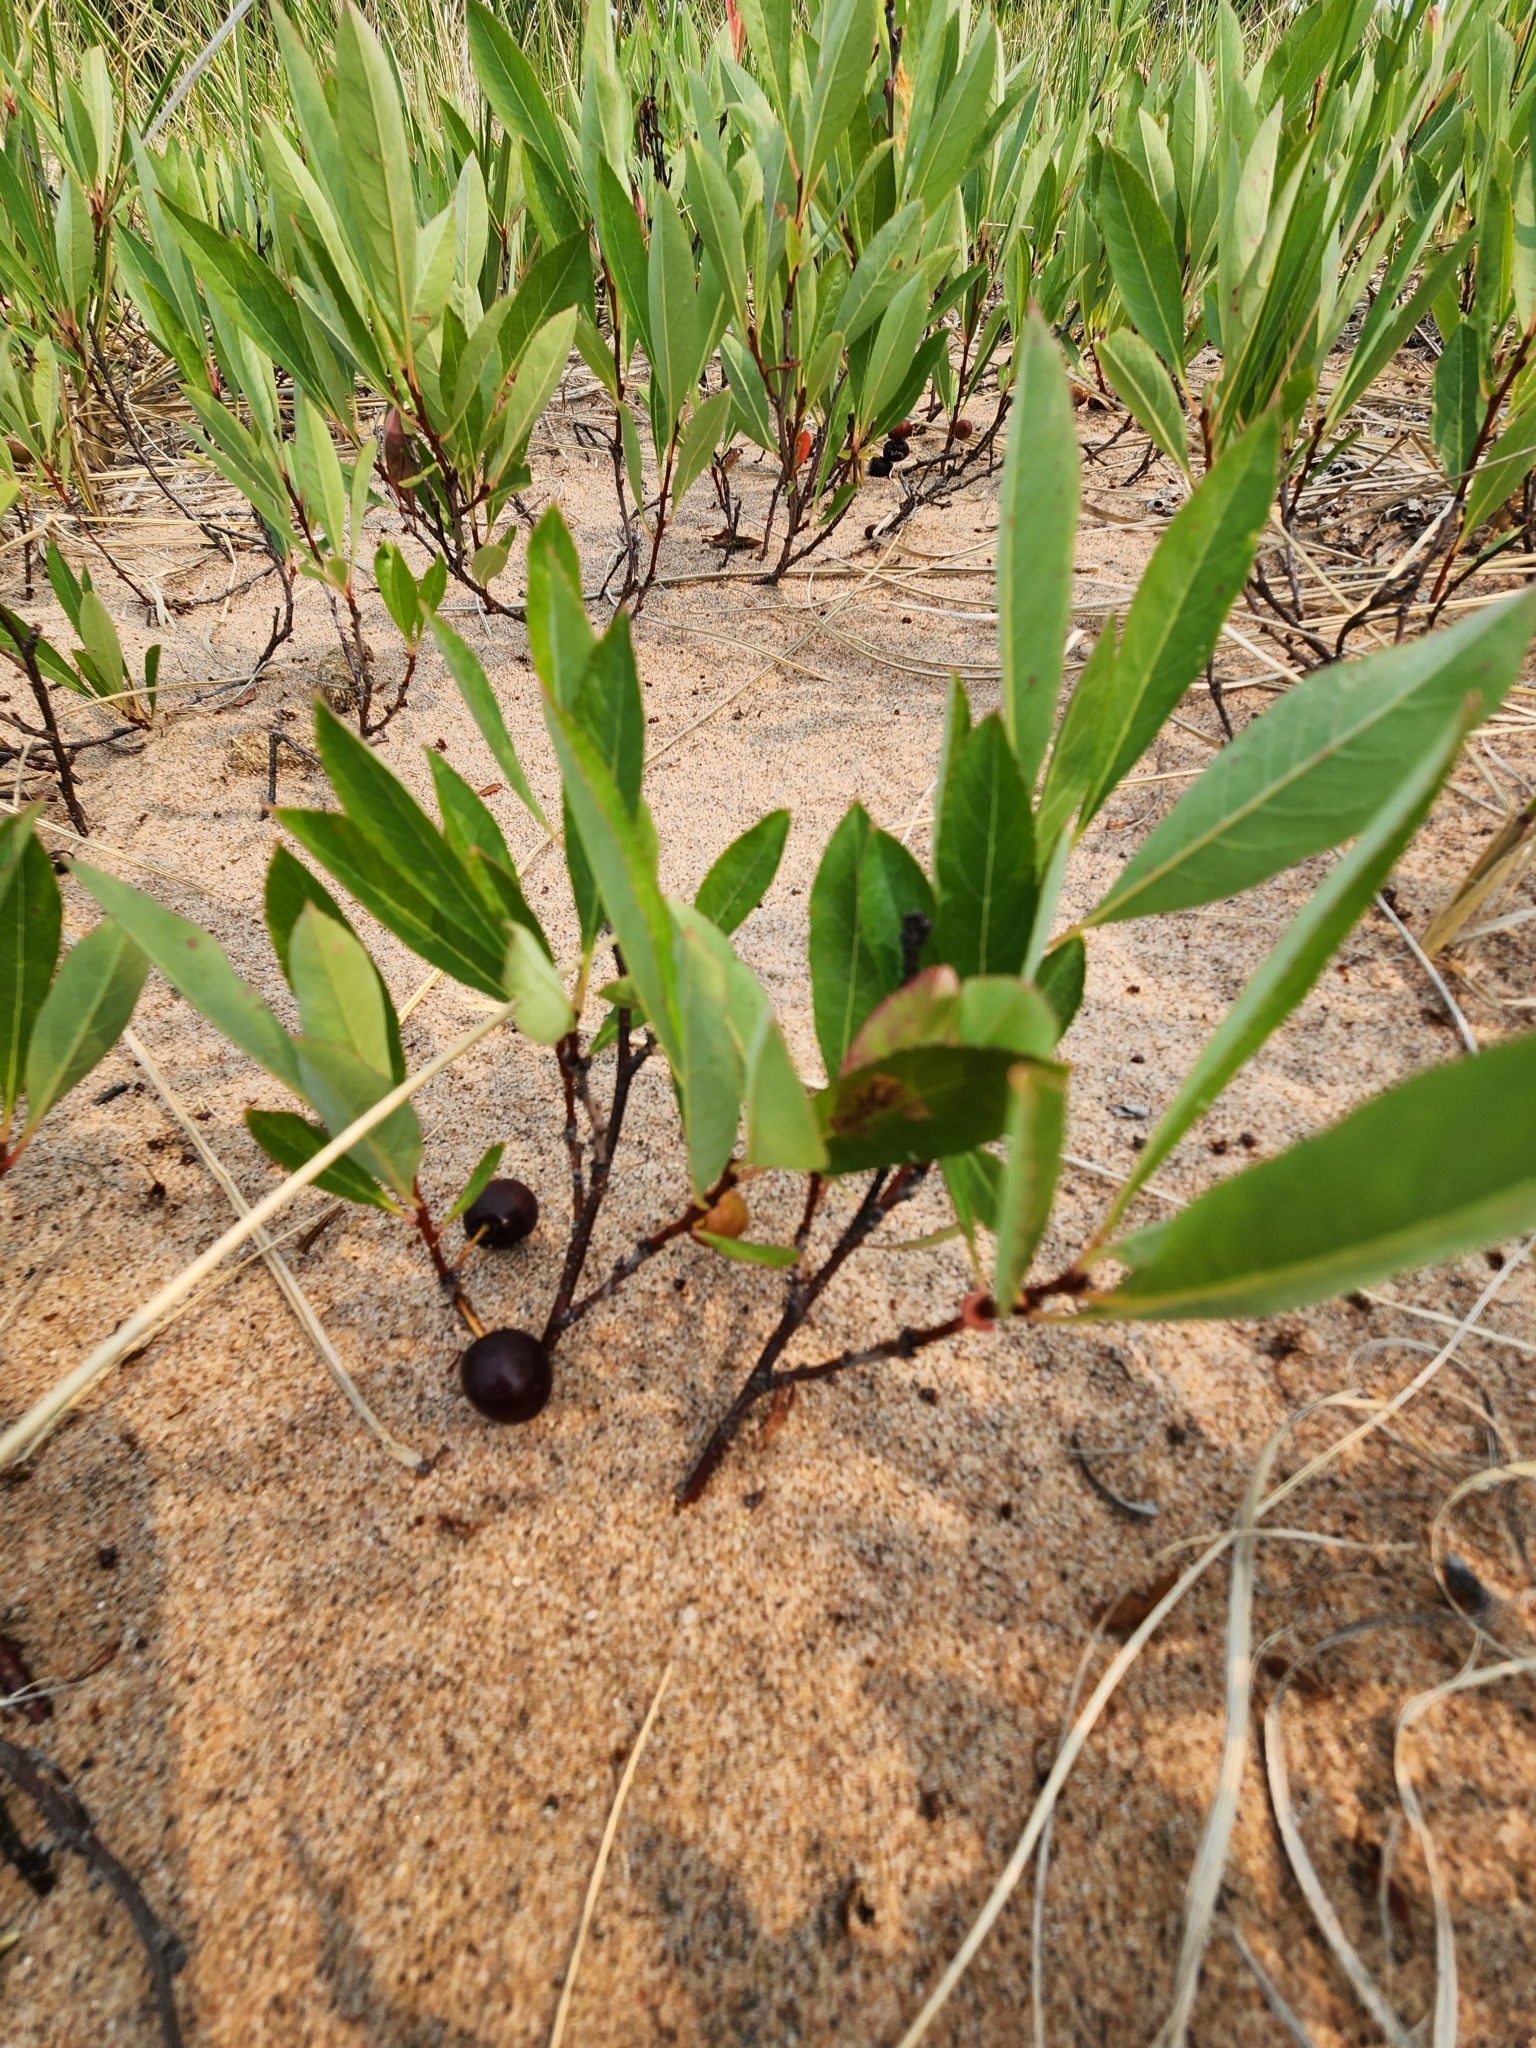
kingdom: Plantae
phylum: Tracheophyta
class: Magnoliopsida
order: Rosales
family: Rosaceae
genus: Prunus
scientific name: Prunus pumila
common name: Dwarf cherry
